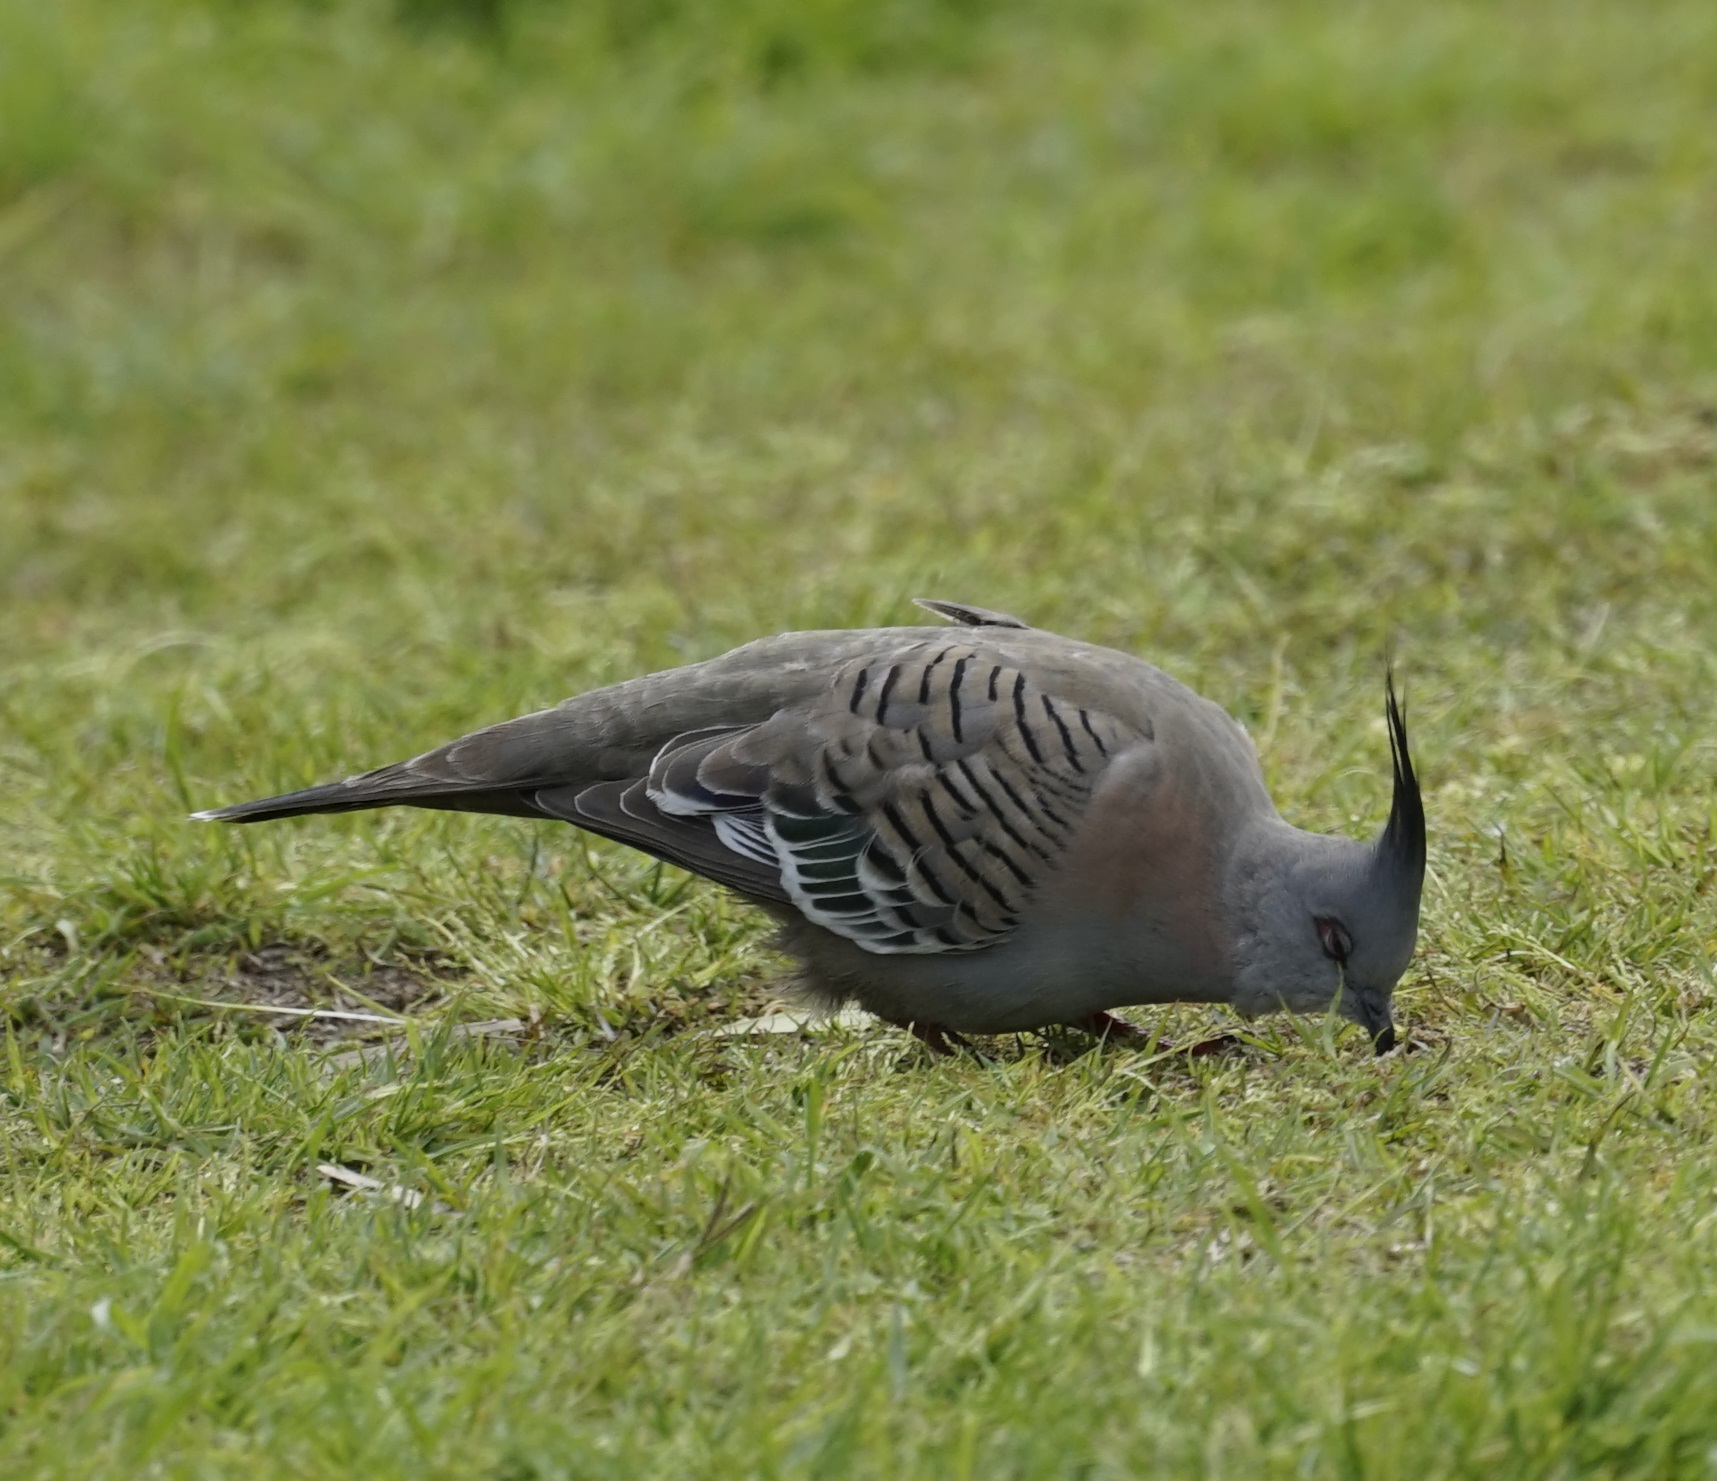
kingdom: Animalia
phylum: Chordata
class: Aves
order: Columbiformes
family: Columbidae
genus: Ocyphaps
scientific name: Ocyphaps lophotes
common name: Crested pigeon
